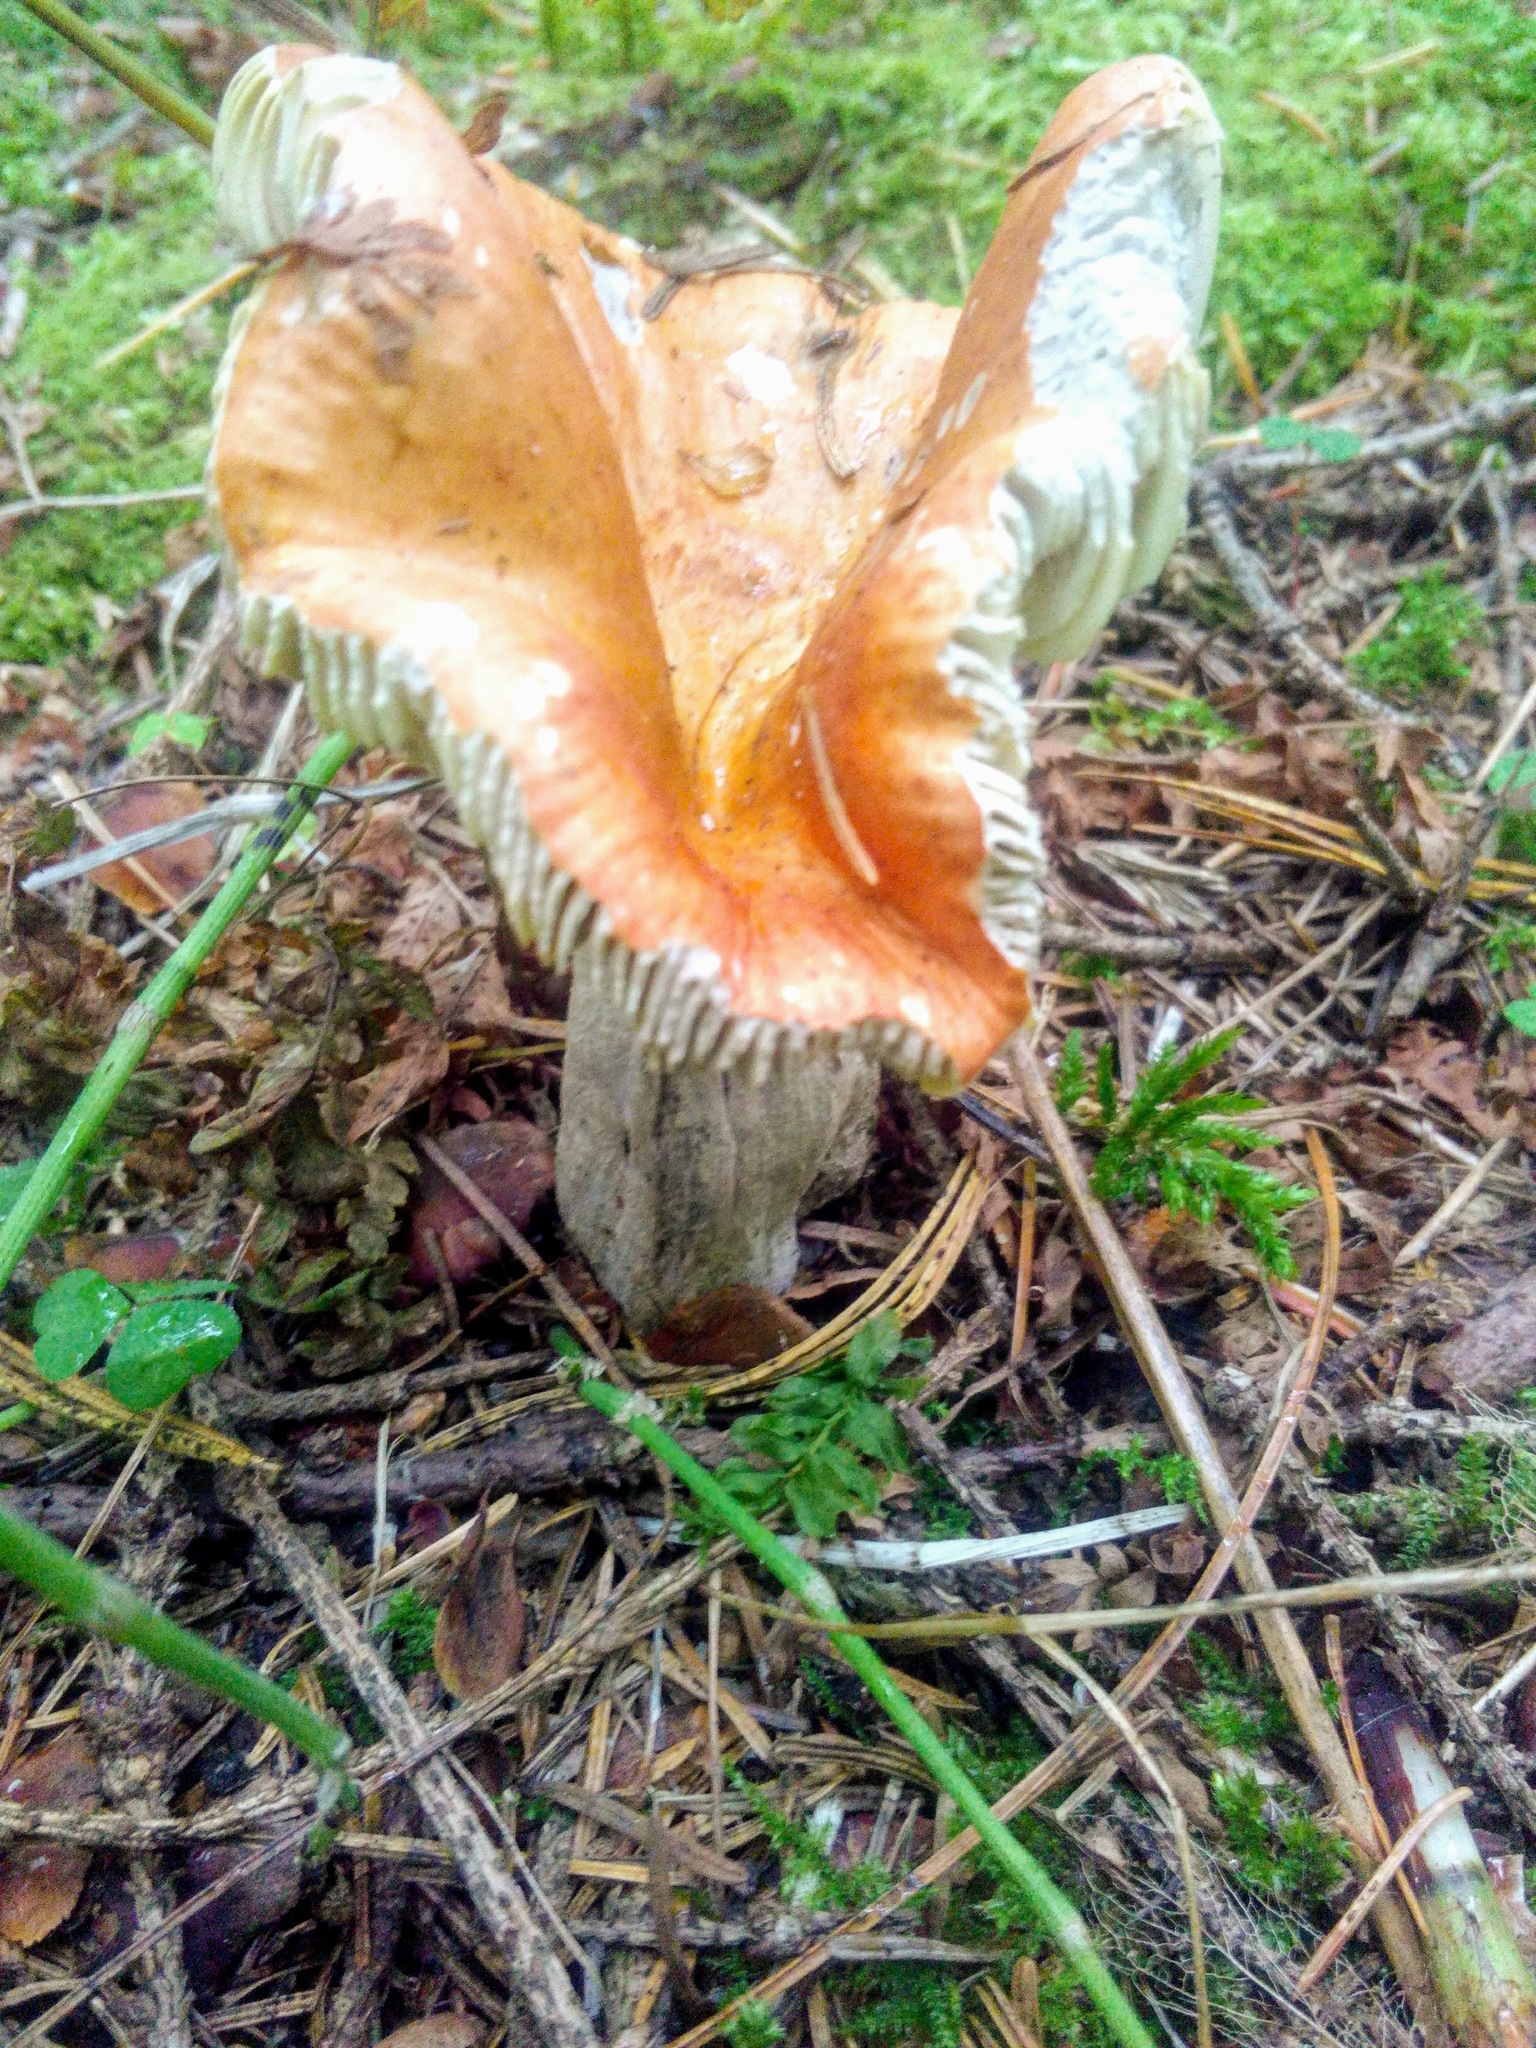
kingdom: Fungi
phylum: Basidiomycota
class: Agaricomycetes
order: Russulales
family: Russulaceae
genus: Russula
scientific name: Russula decolorans
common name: Copper brittlegill
